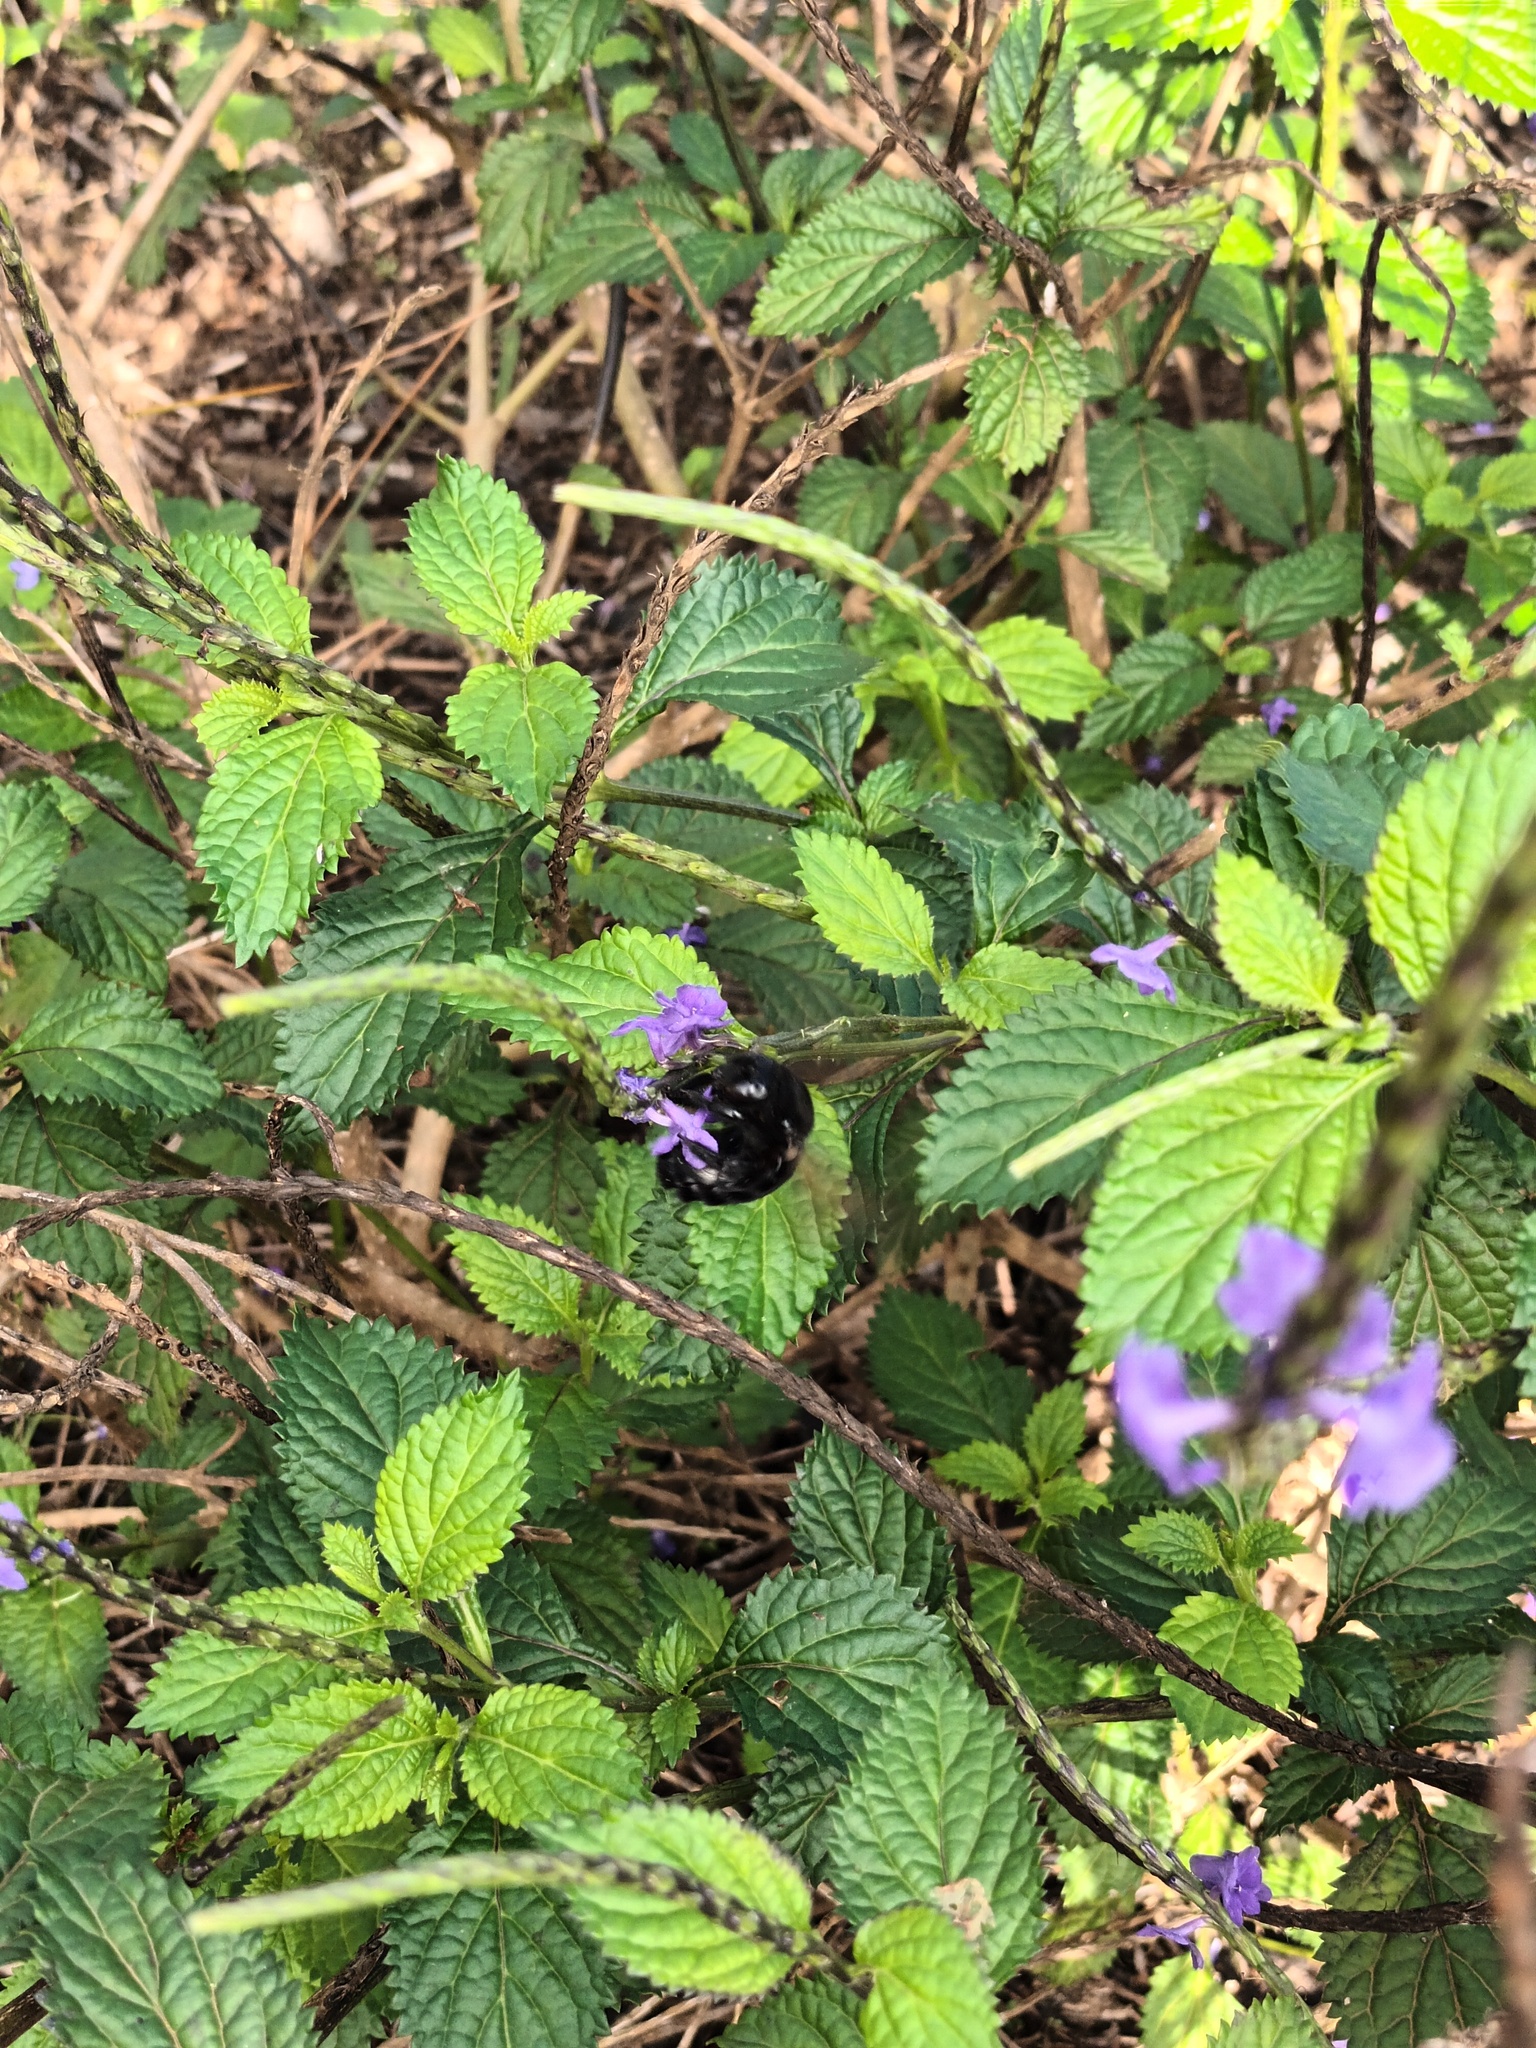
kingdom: Plantae
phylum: Tracheophyta
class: Magnoliopsida
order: Lamiales
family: Verbenaceae
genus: Stachytarpheta
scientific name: Stachytarpheta cayennensis
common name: Cayenne porterweed
